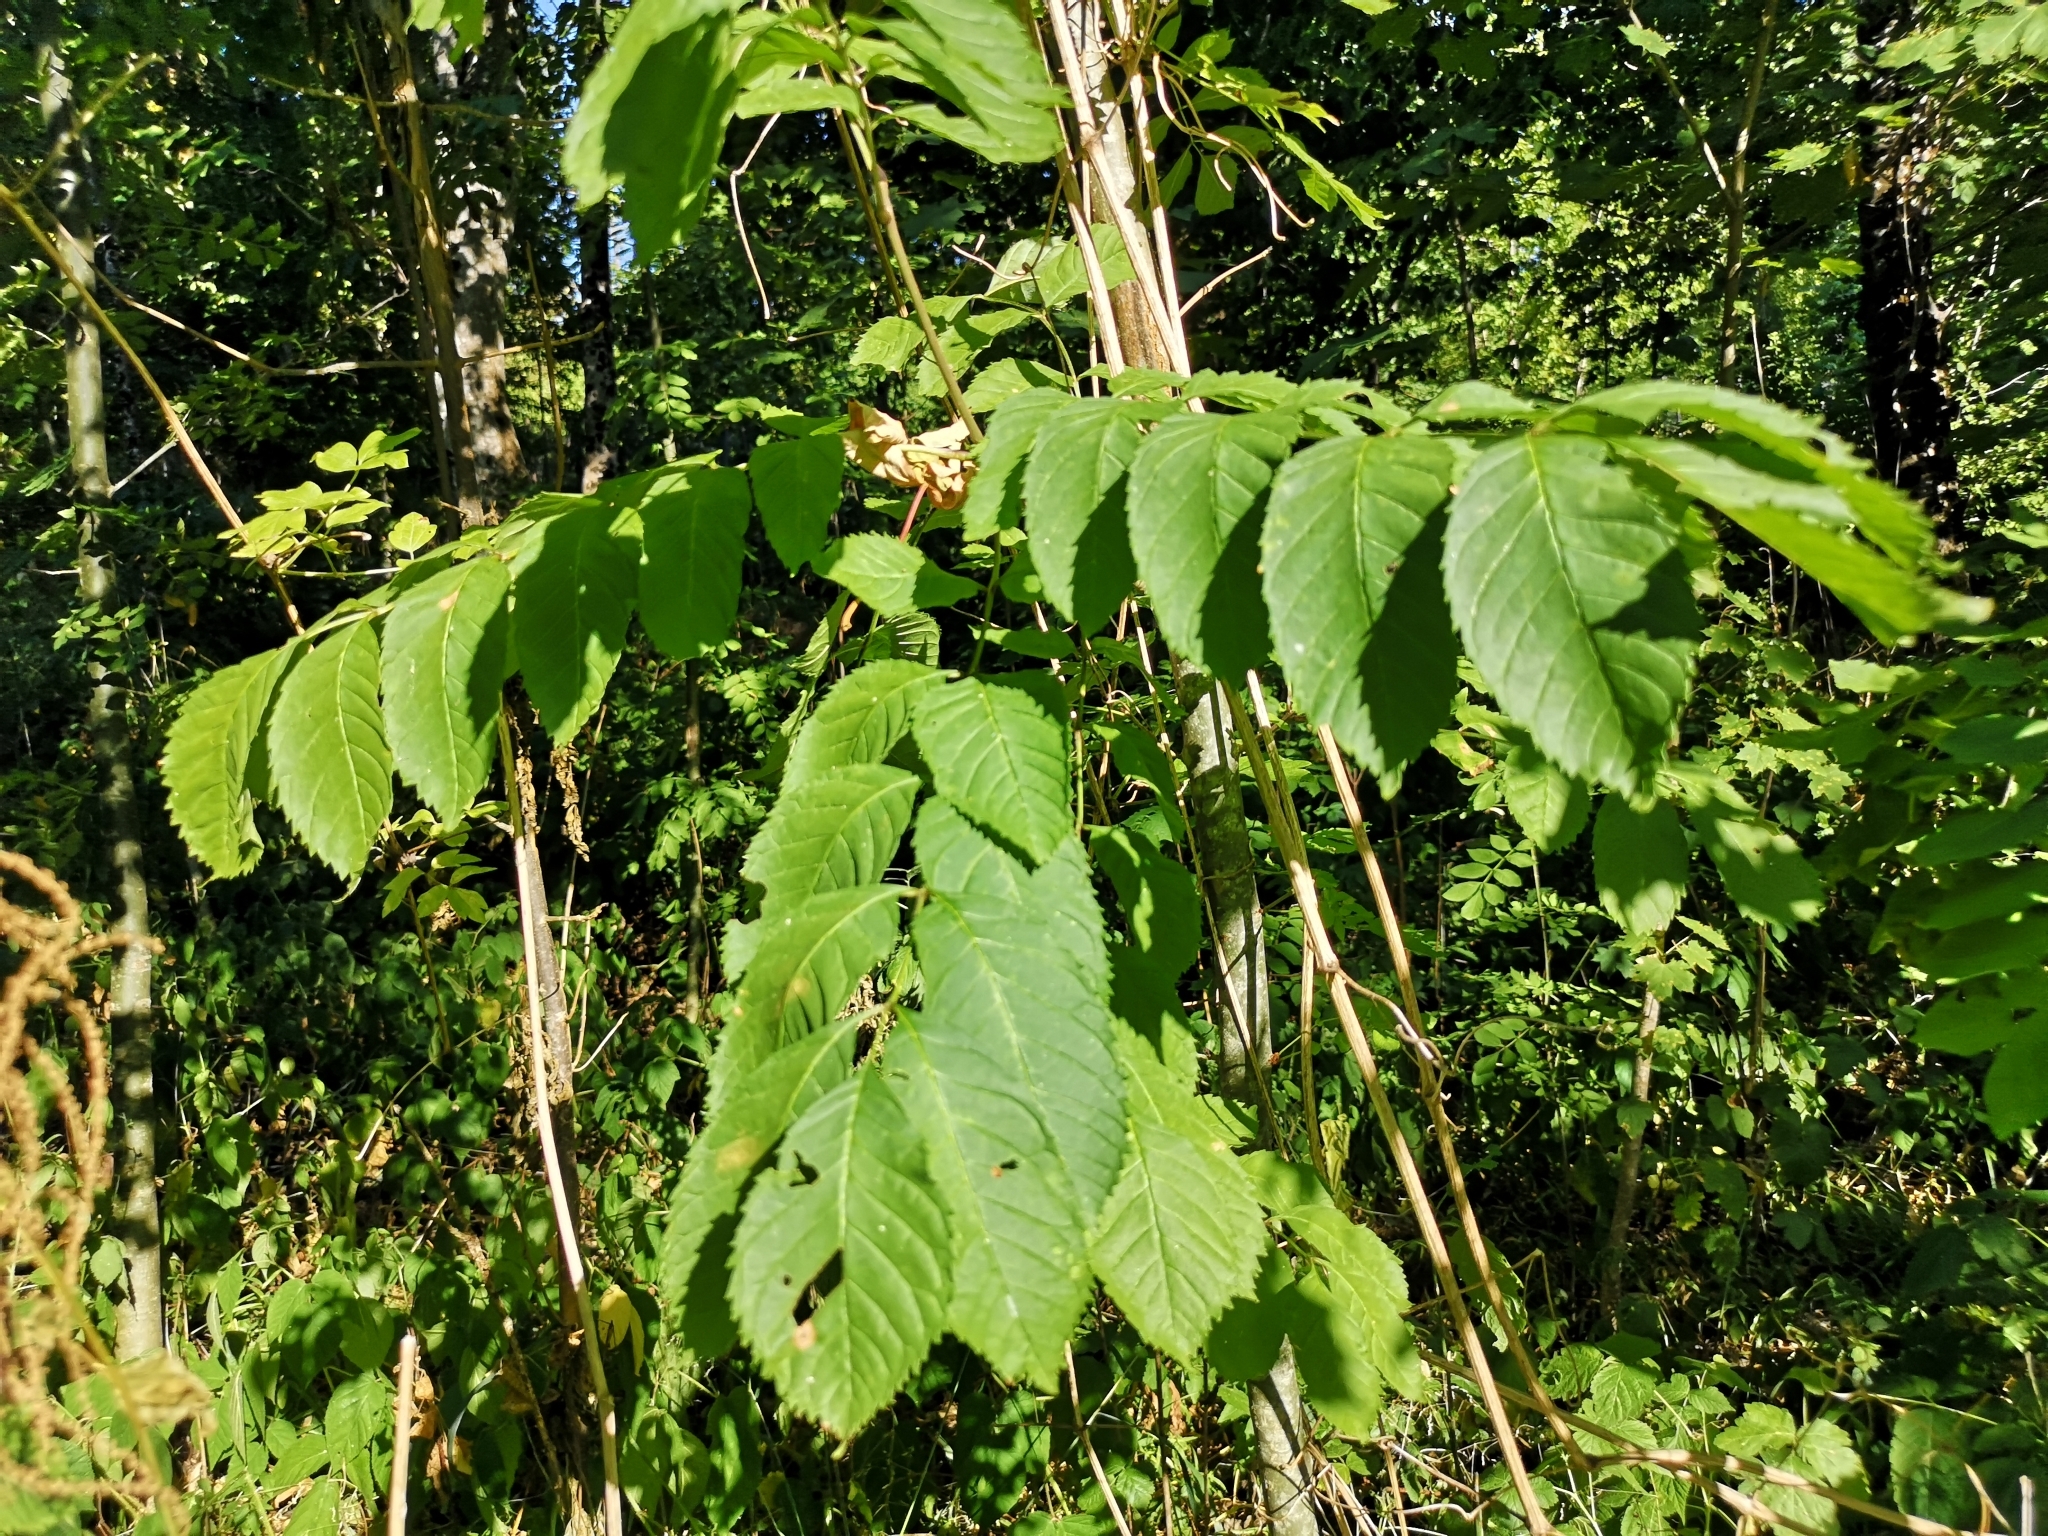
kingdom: Plantae
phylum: Tracheophyta
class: Magnoliopsida
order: Lamiales
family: Oleaceae
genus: Fraxinus
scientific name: Fraxinus excelsior
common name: European ash
